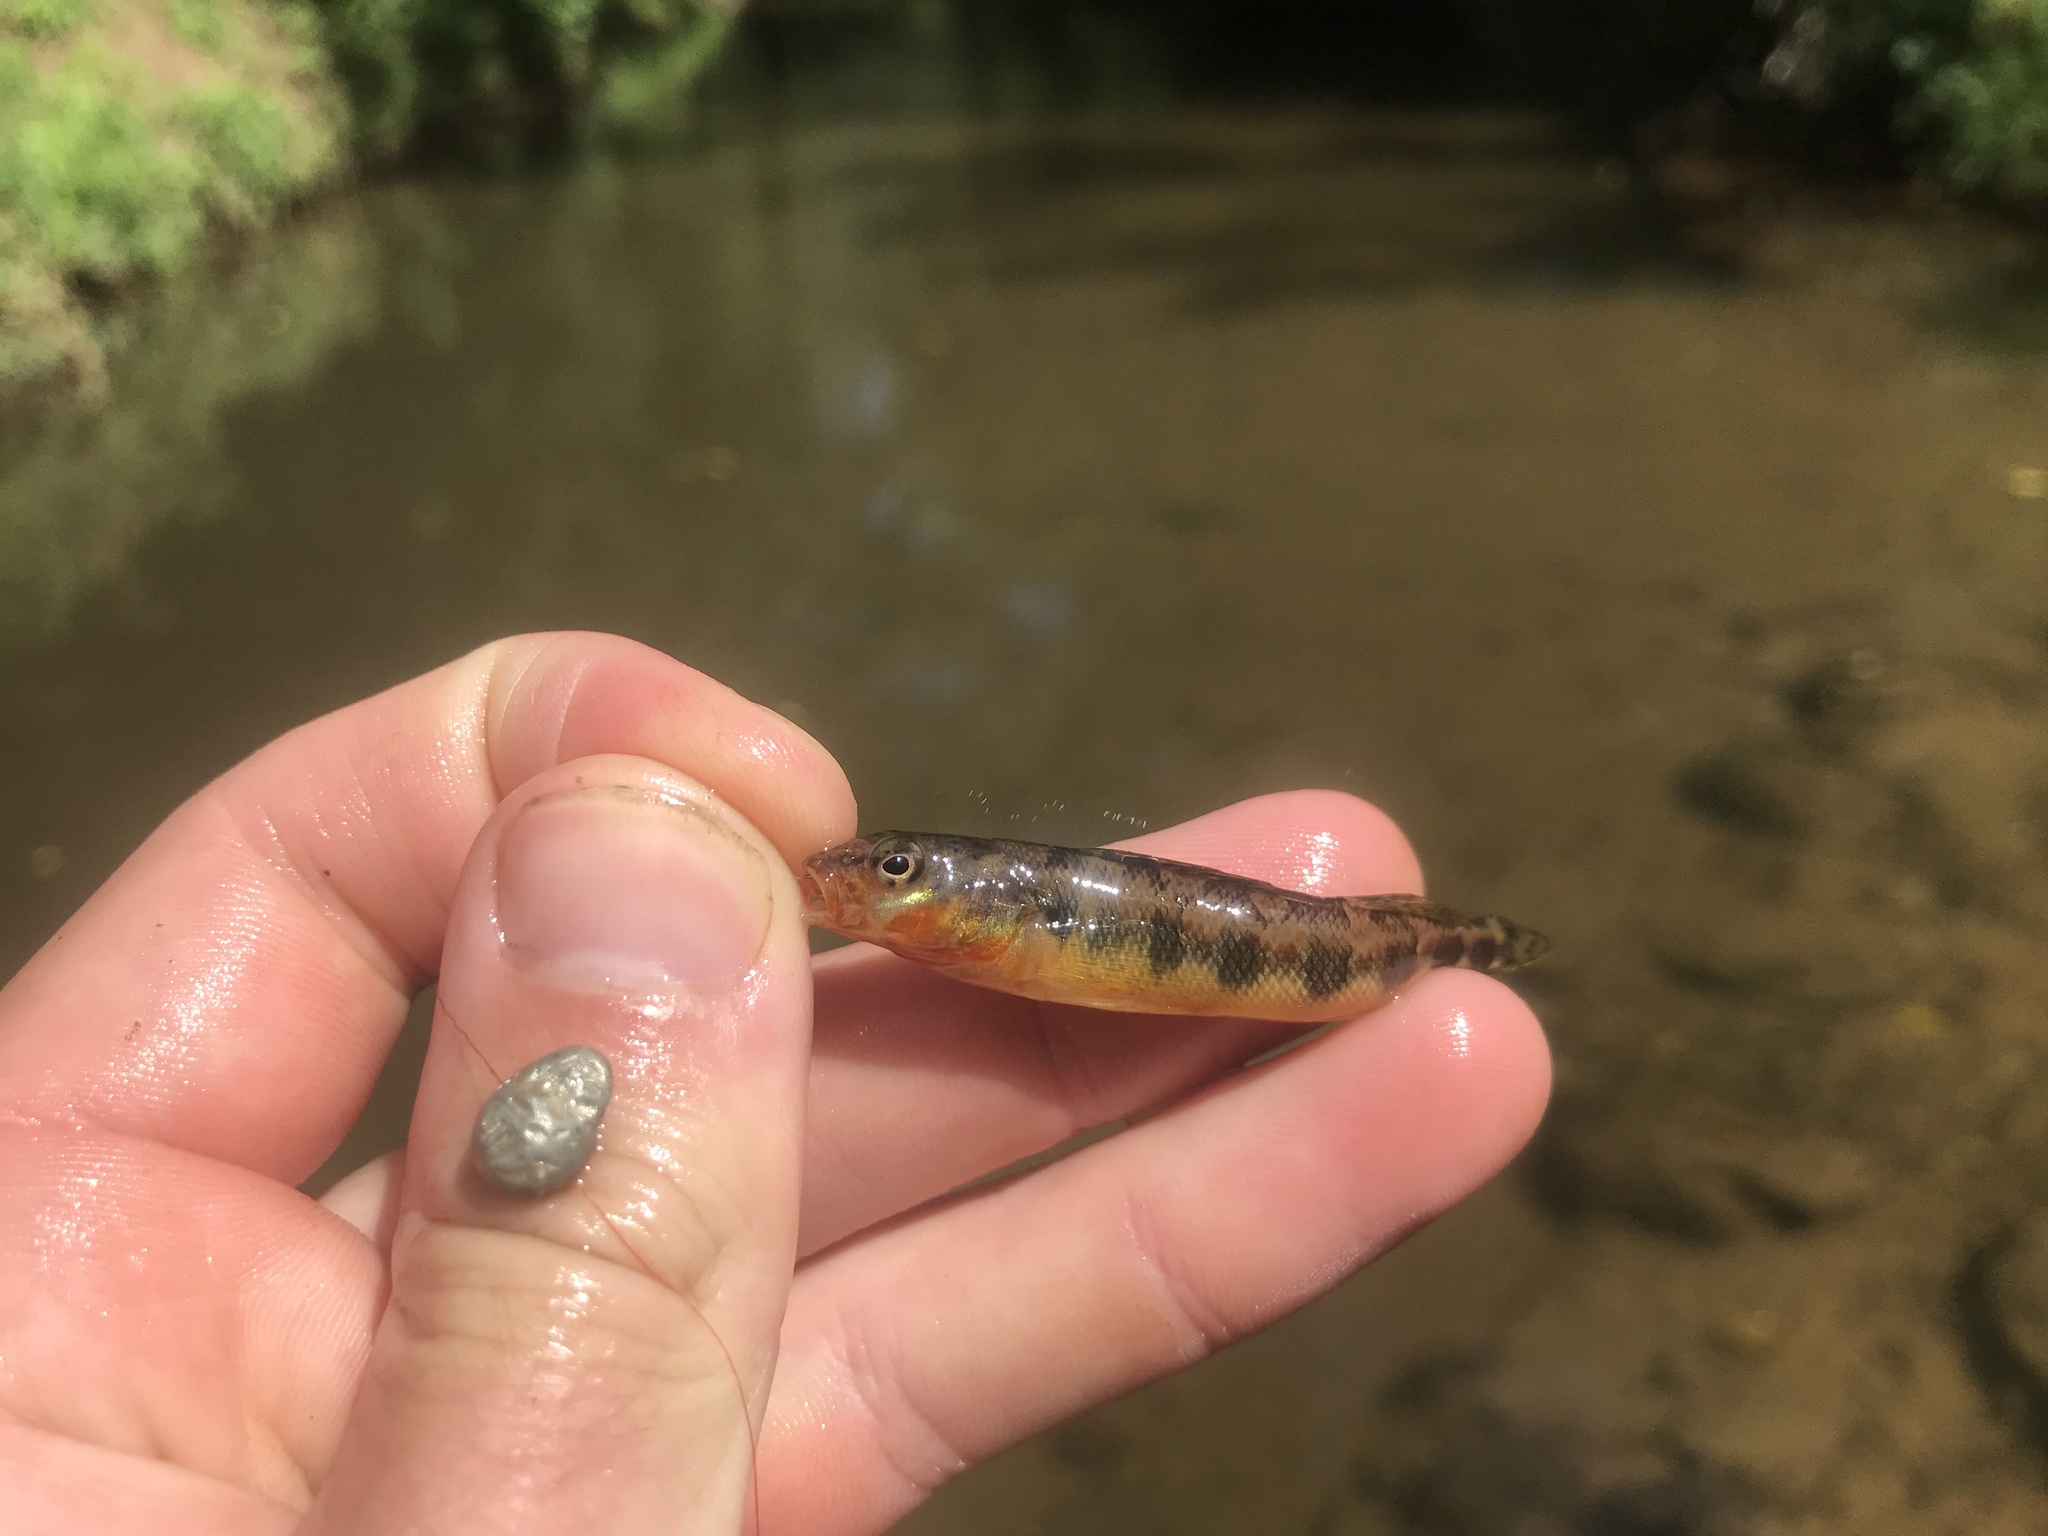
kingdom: Animalia
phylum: Chordata
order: Perciformes
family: Percidae
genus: Percina
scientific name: Percina evides
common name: Gilt darter
